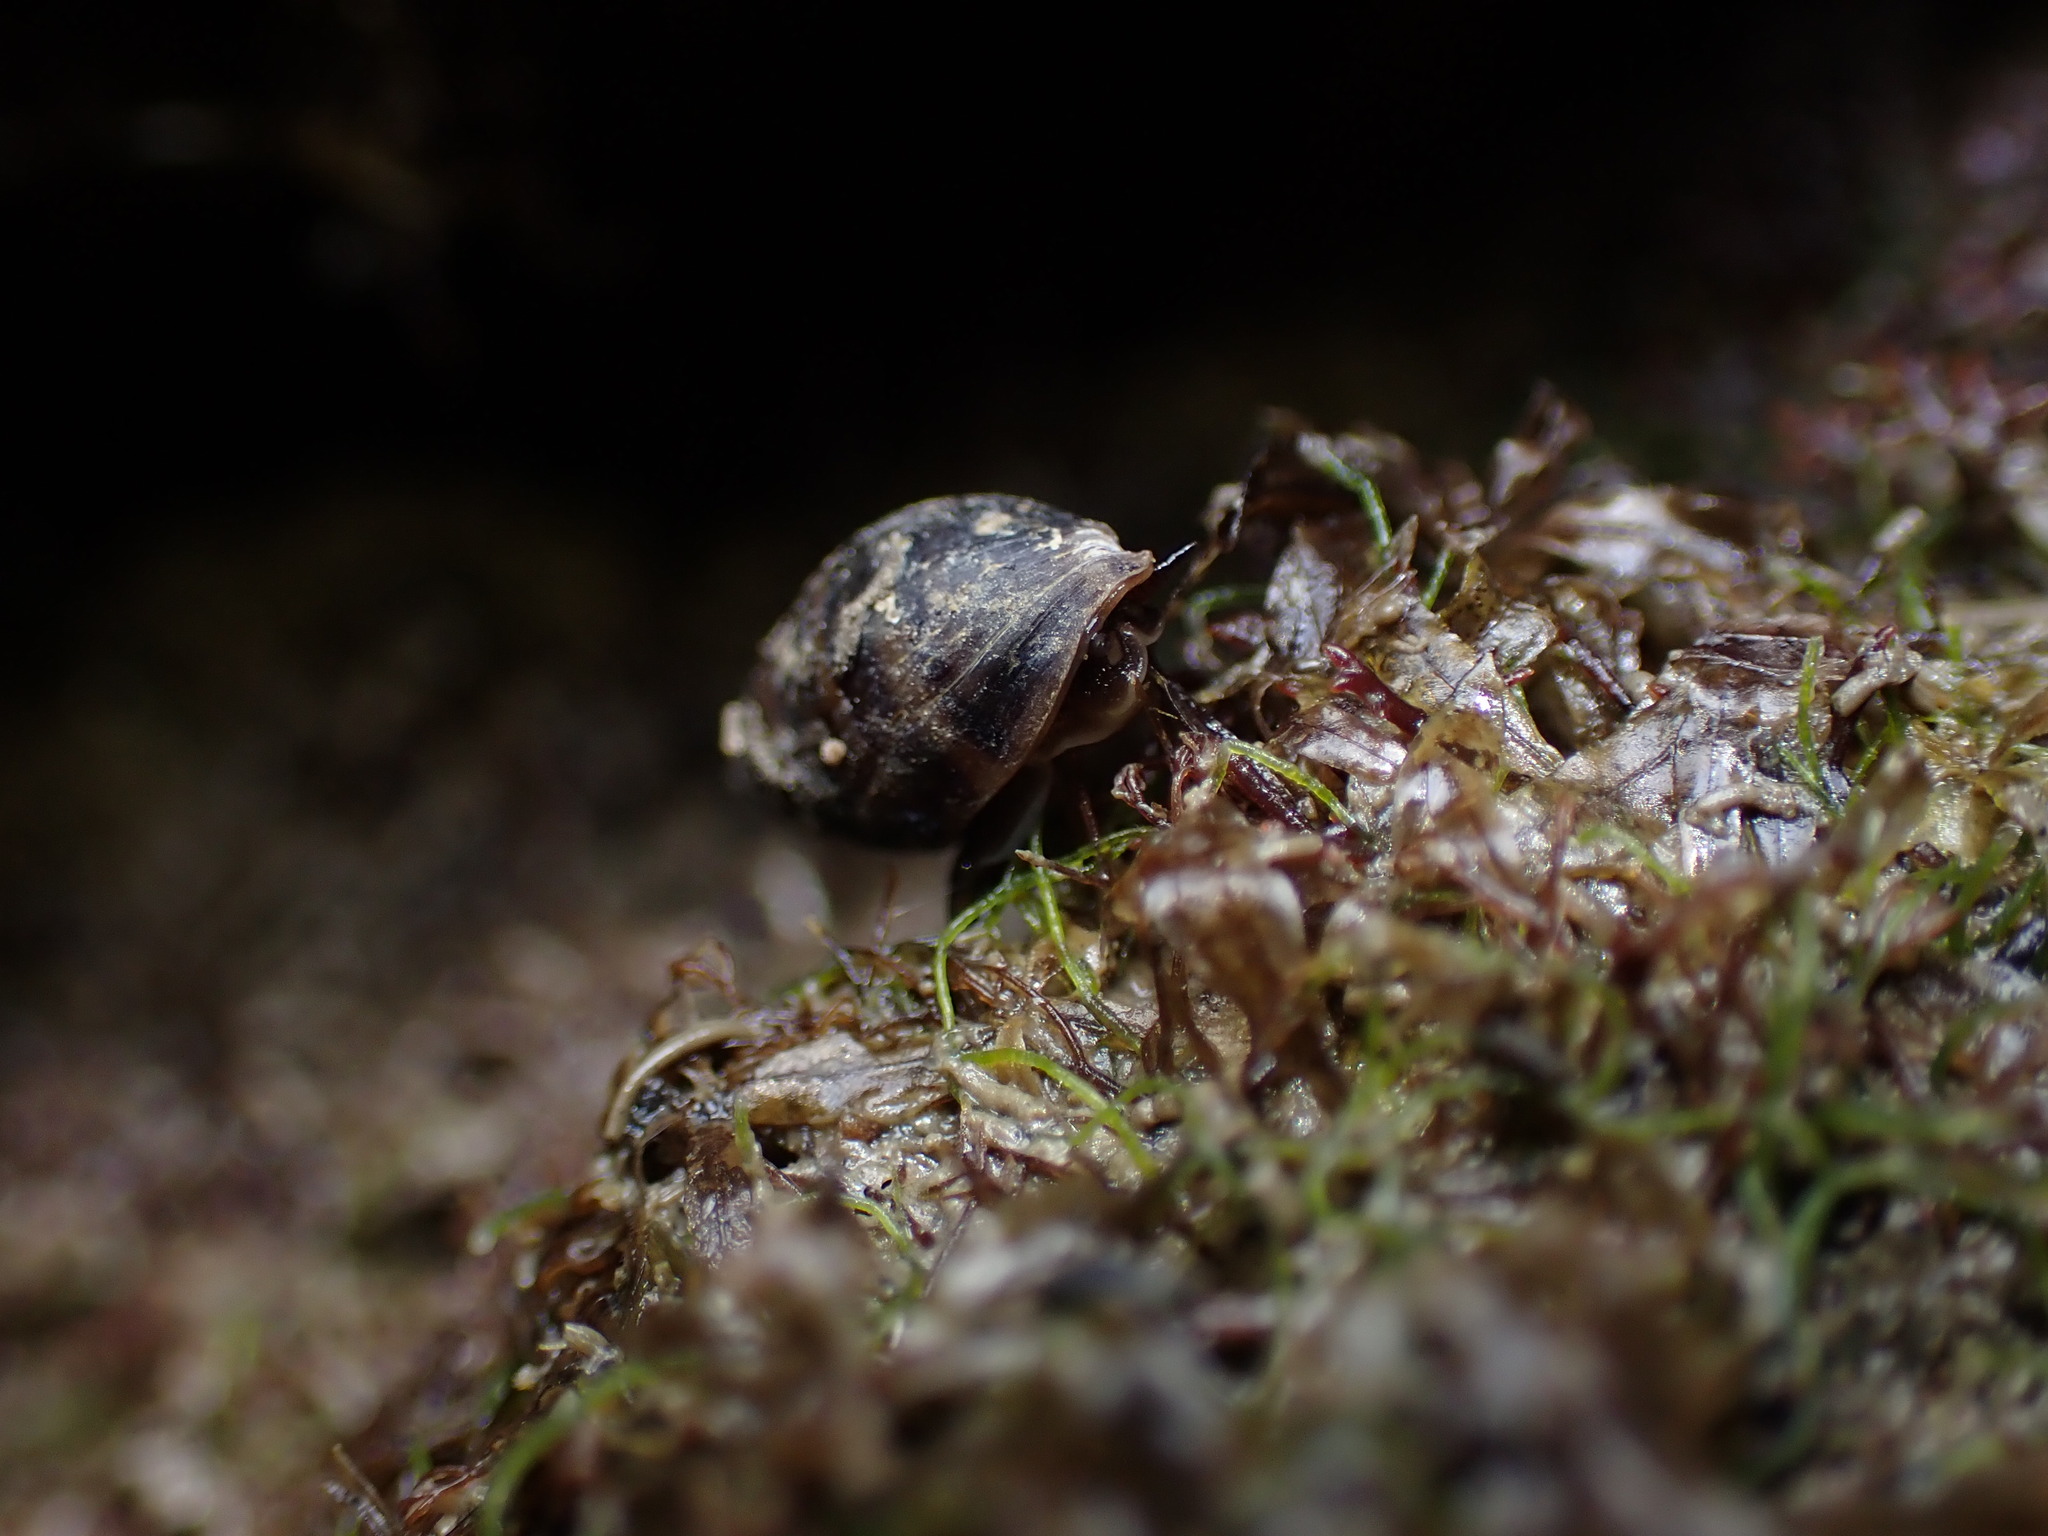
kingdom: Animalia
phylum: Mollusca
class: Gastropoda
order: Ellobiida
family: Ellobiidae
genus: Pleuroloba
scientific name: Pleuroloba costellaris
